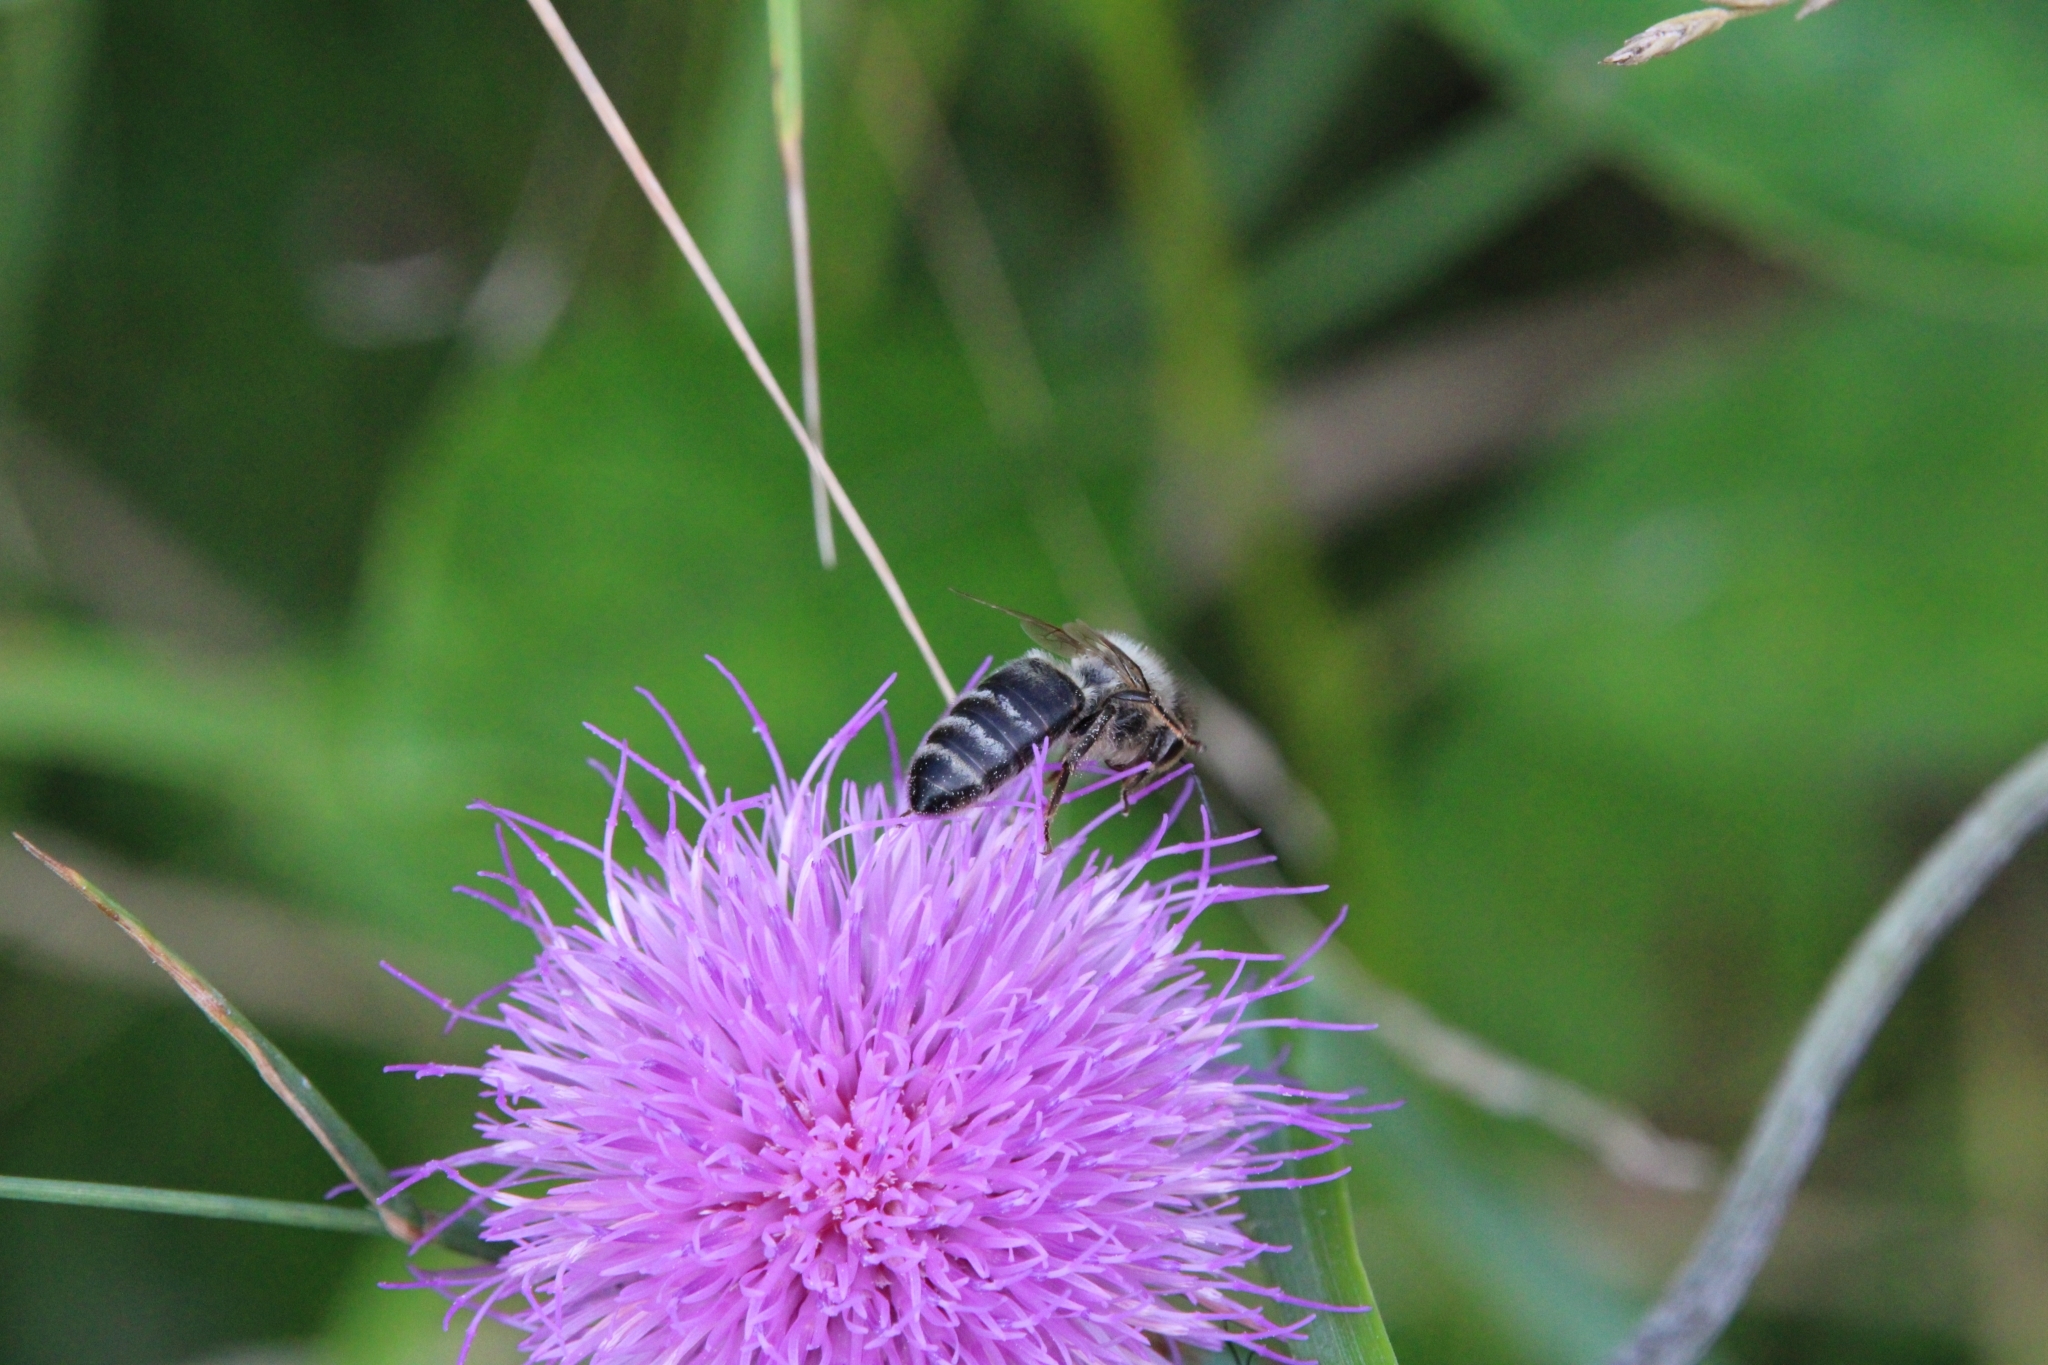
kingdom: Animalia
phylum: Arthropoda
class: Insecta
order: Hymenoptera
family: Apidae
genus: Apis
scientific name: Apis mellifera
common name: Honey bee
